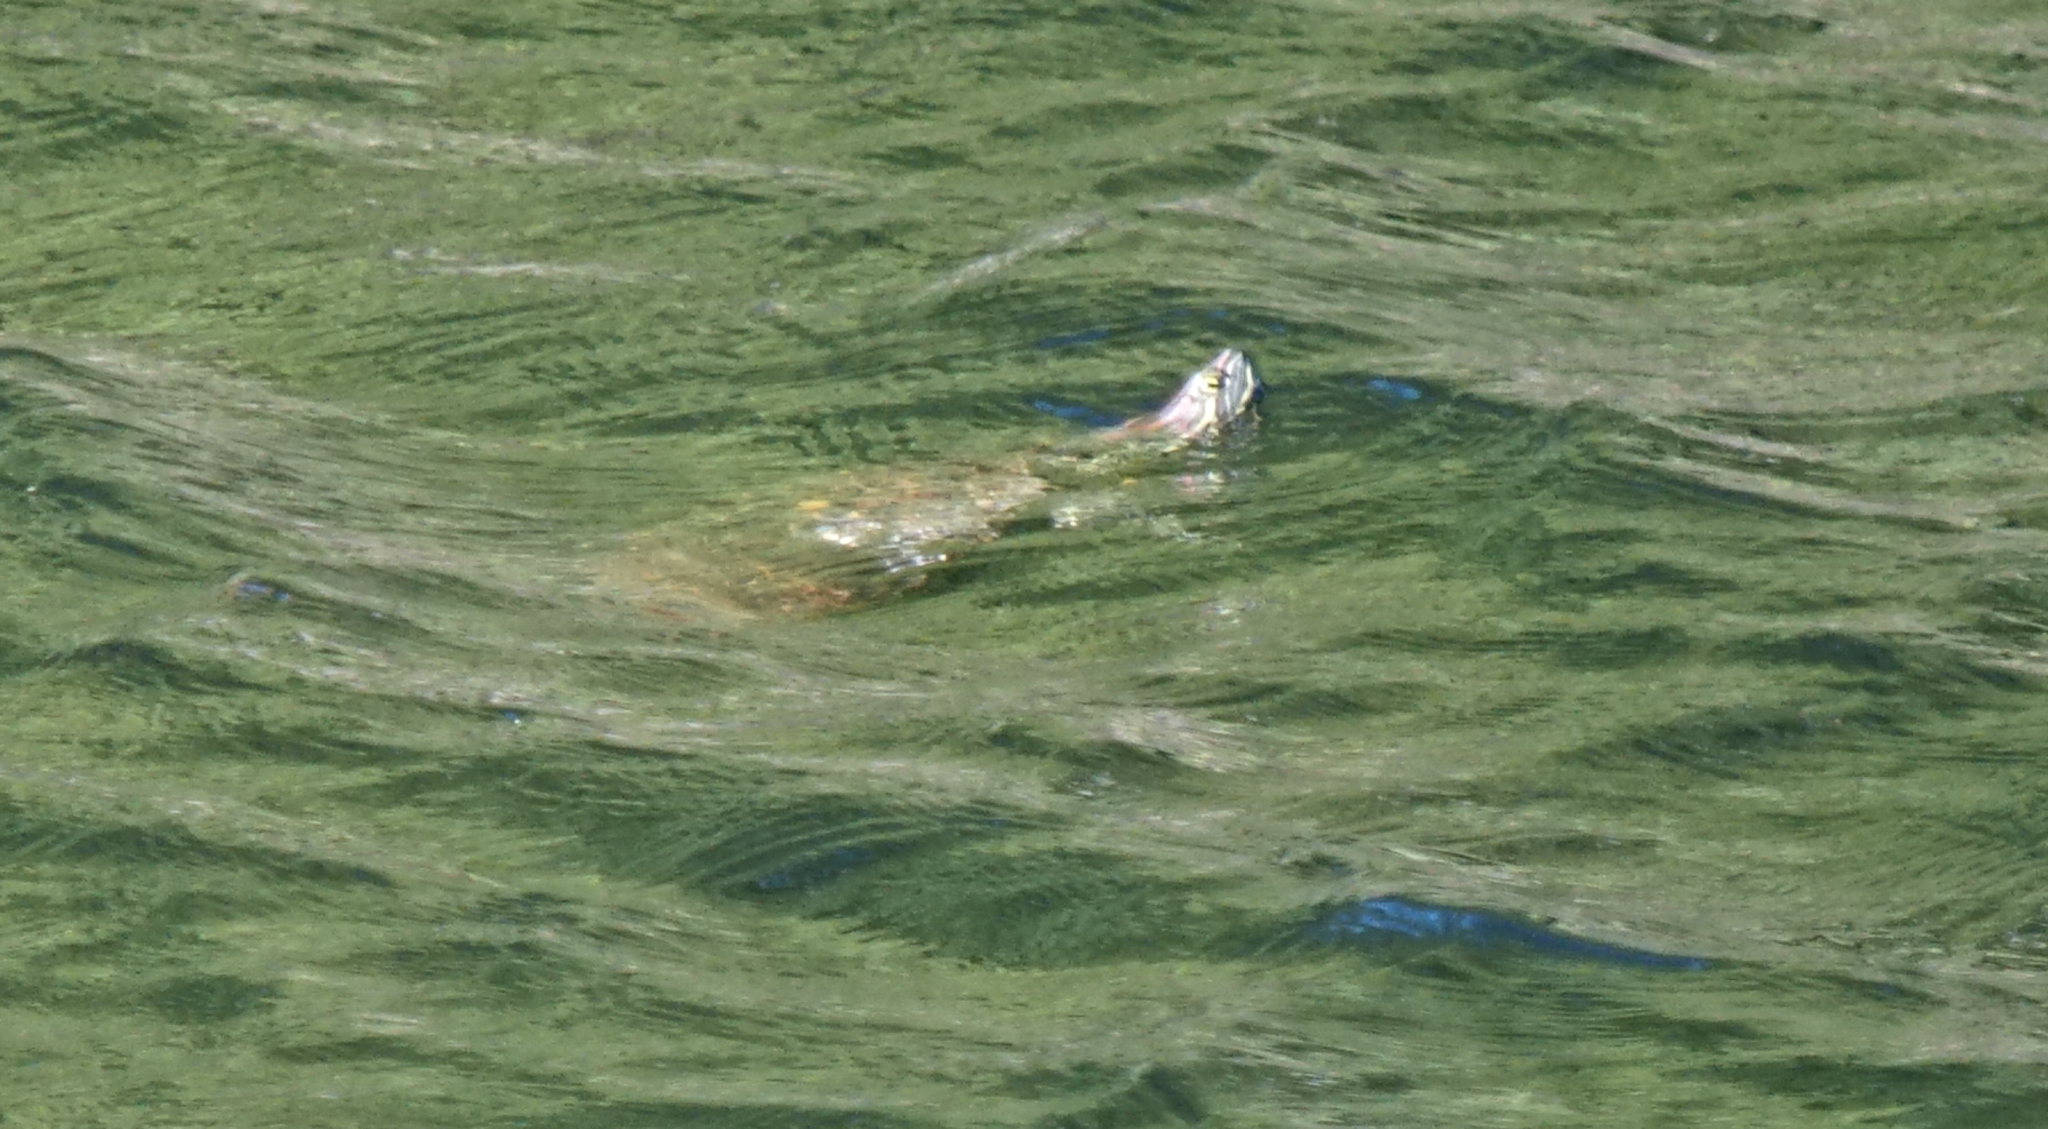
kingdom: Animalia
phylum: Chordata
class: Testudines
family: Emydidae
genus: Trachemys
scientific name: Trachemys scripta
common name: Slider
